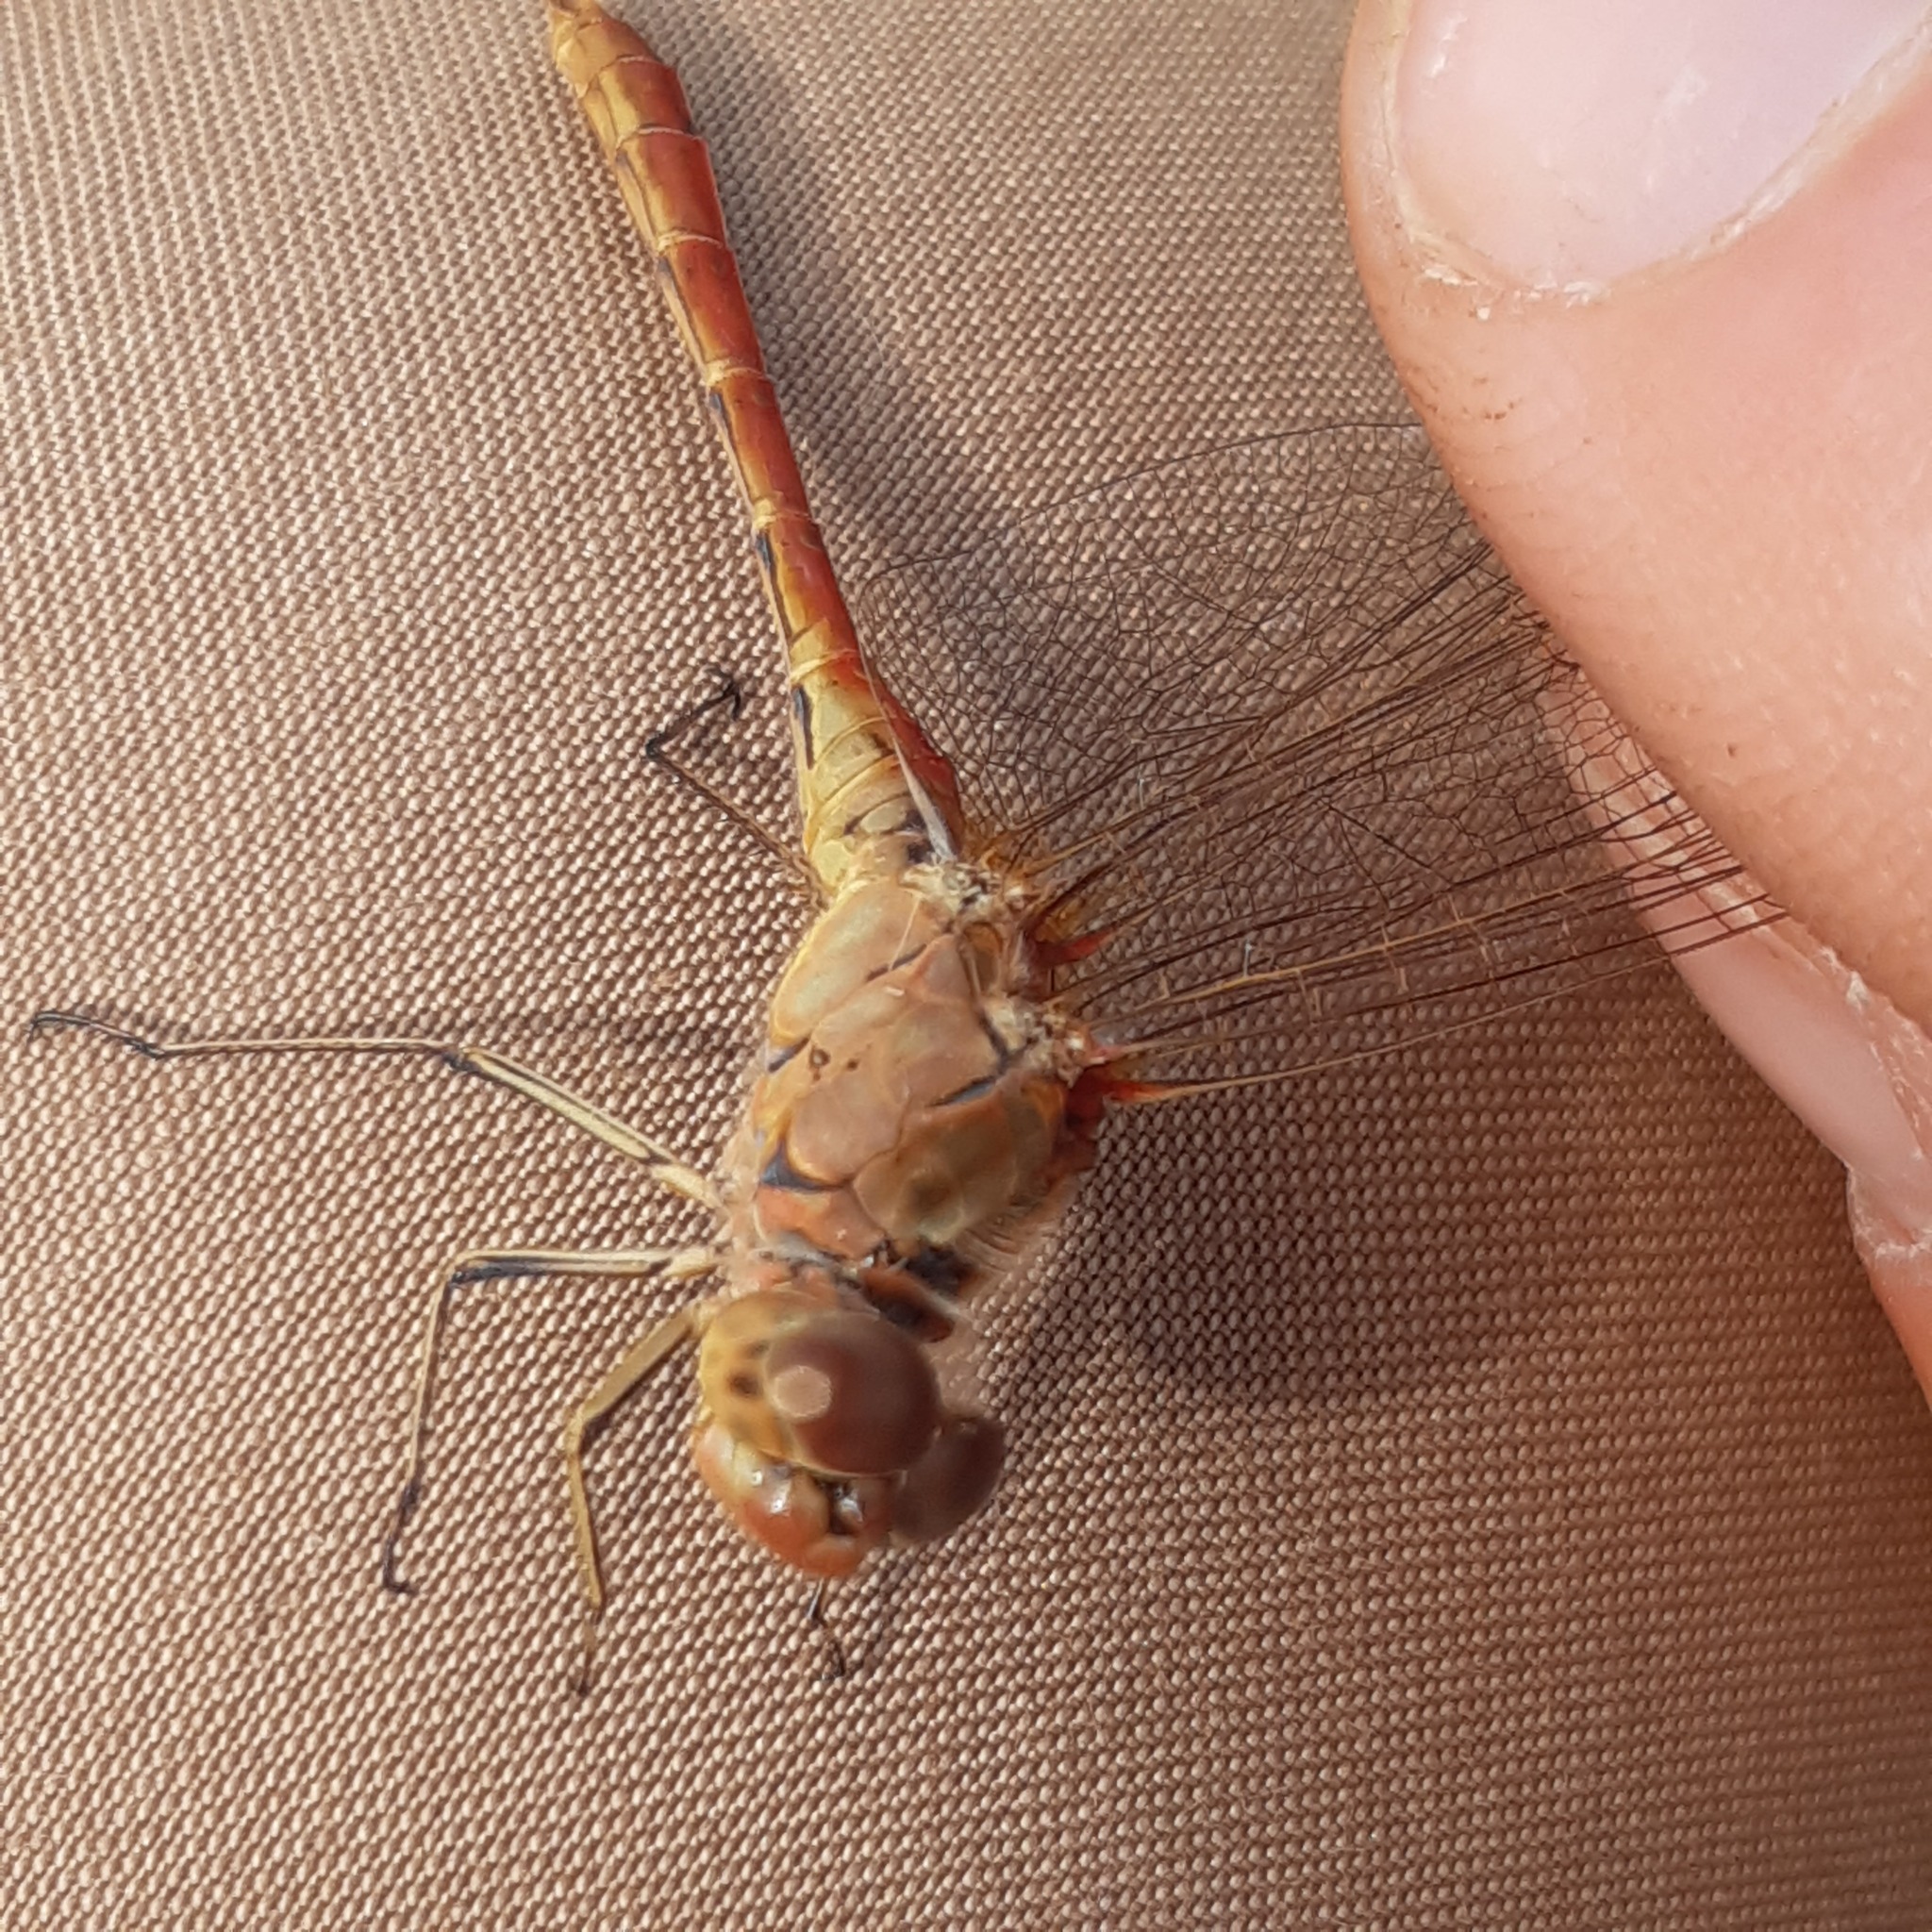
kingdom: Animalia
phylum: Arthropoda
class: Insecta
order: Odonata
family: Libellulidae
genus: Sympetrum
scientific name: Sympetrum meridionale
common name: Southern darter
